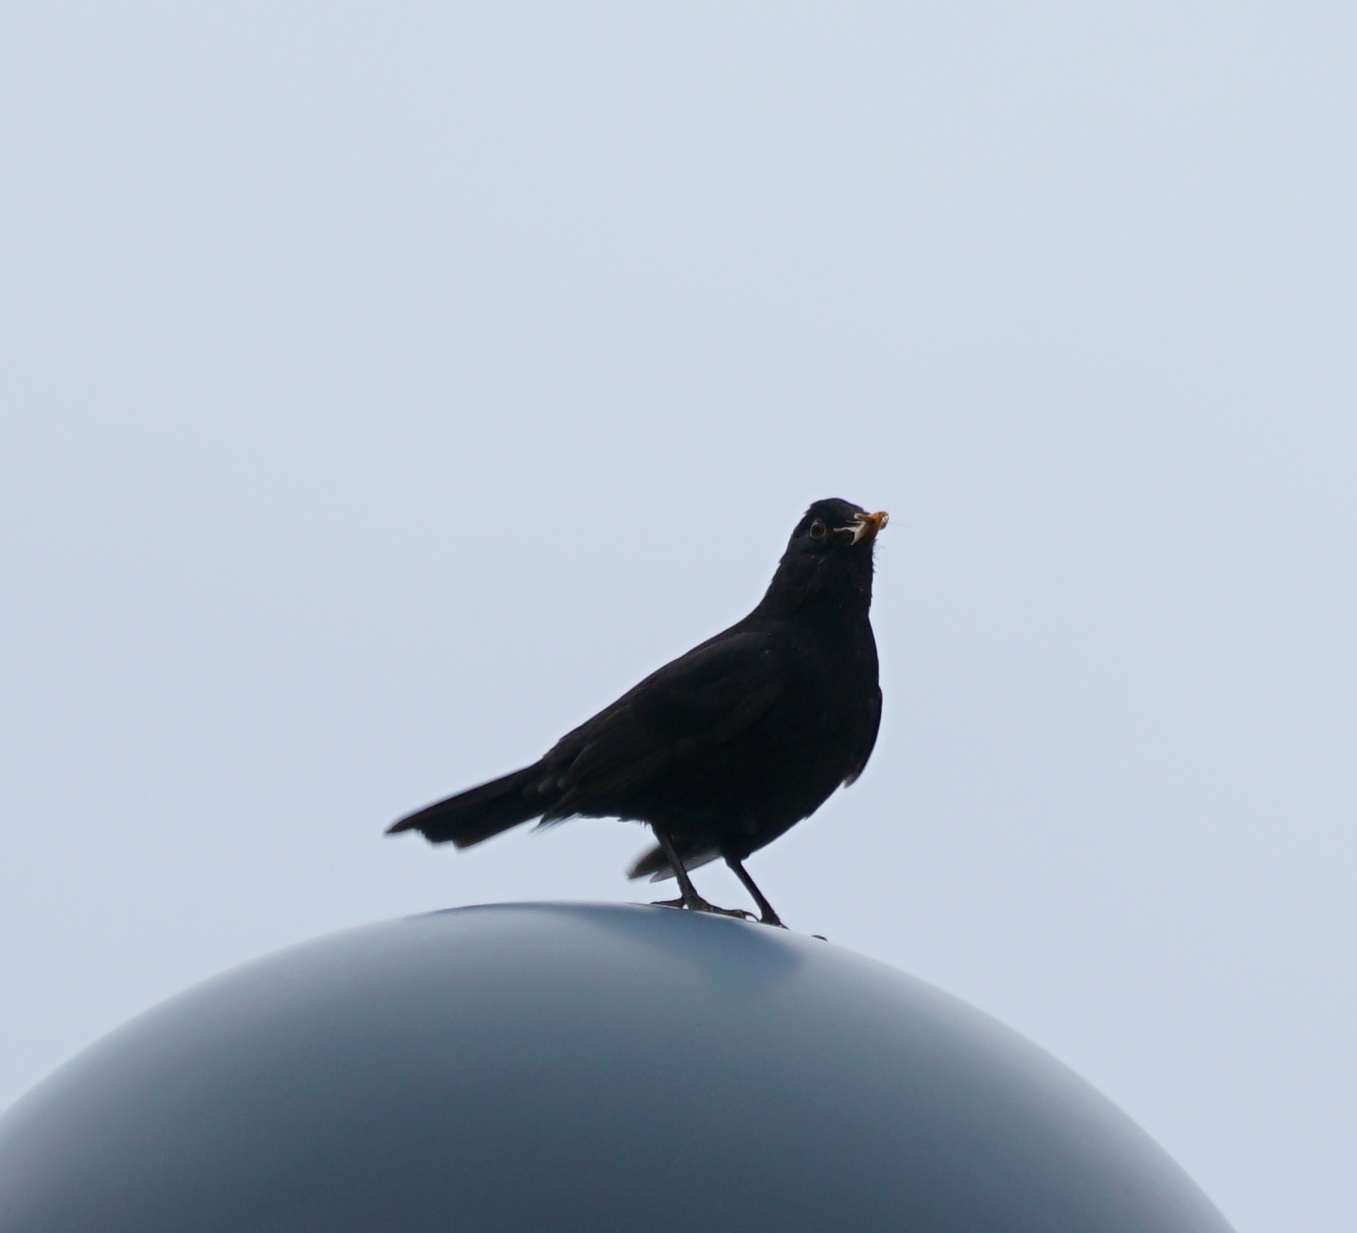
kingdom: Animalia
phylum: Chordata
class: Aves
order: Passeriformes
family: Turdidae
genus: Turdus
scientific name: Turdus merula
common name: Common blackbird
